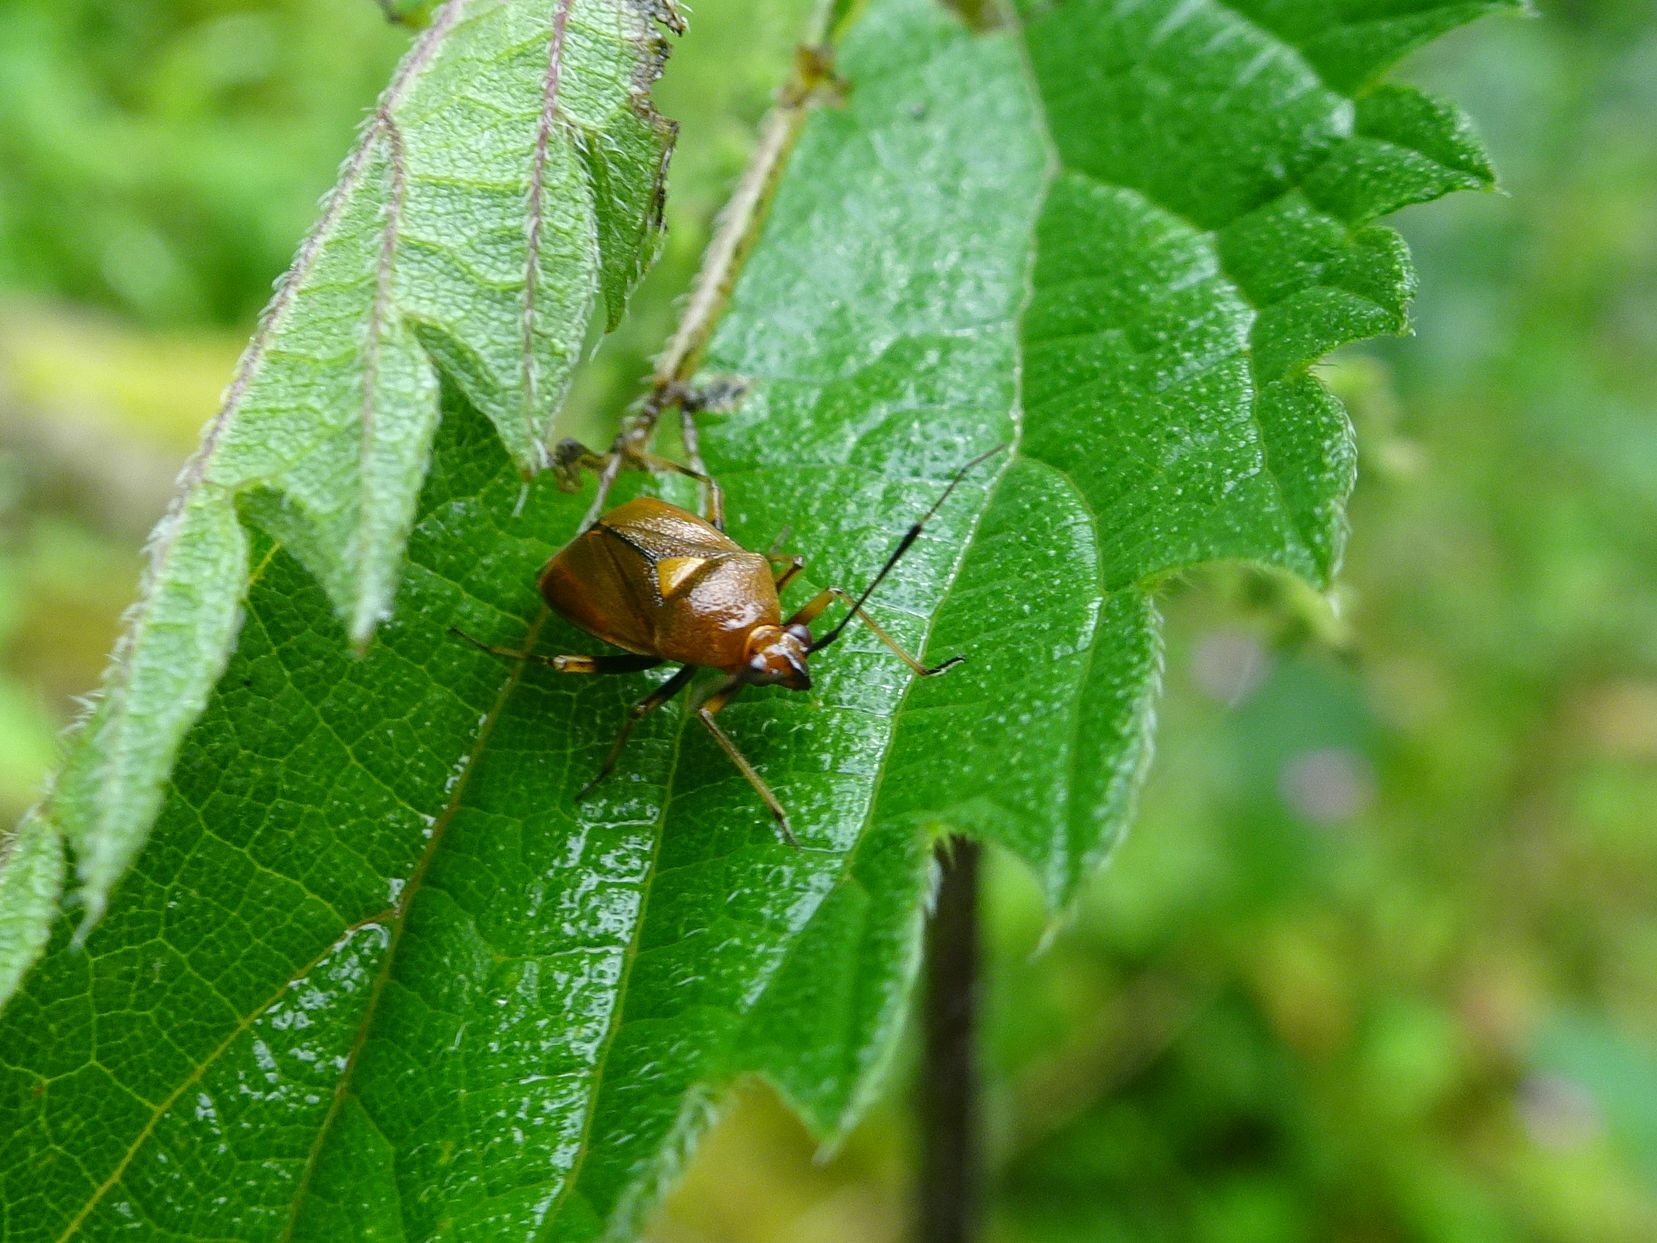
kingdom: Animalia
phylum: Arthropoda
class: Insecta
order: Hemiptera
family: Miridae
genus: Deraeocoris
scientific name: Deraeocoris ruber
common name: Plant bug
